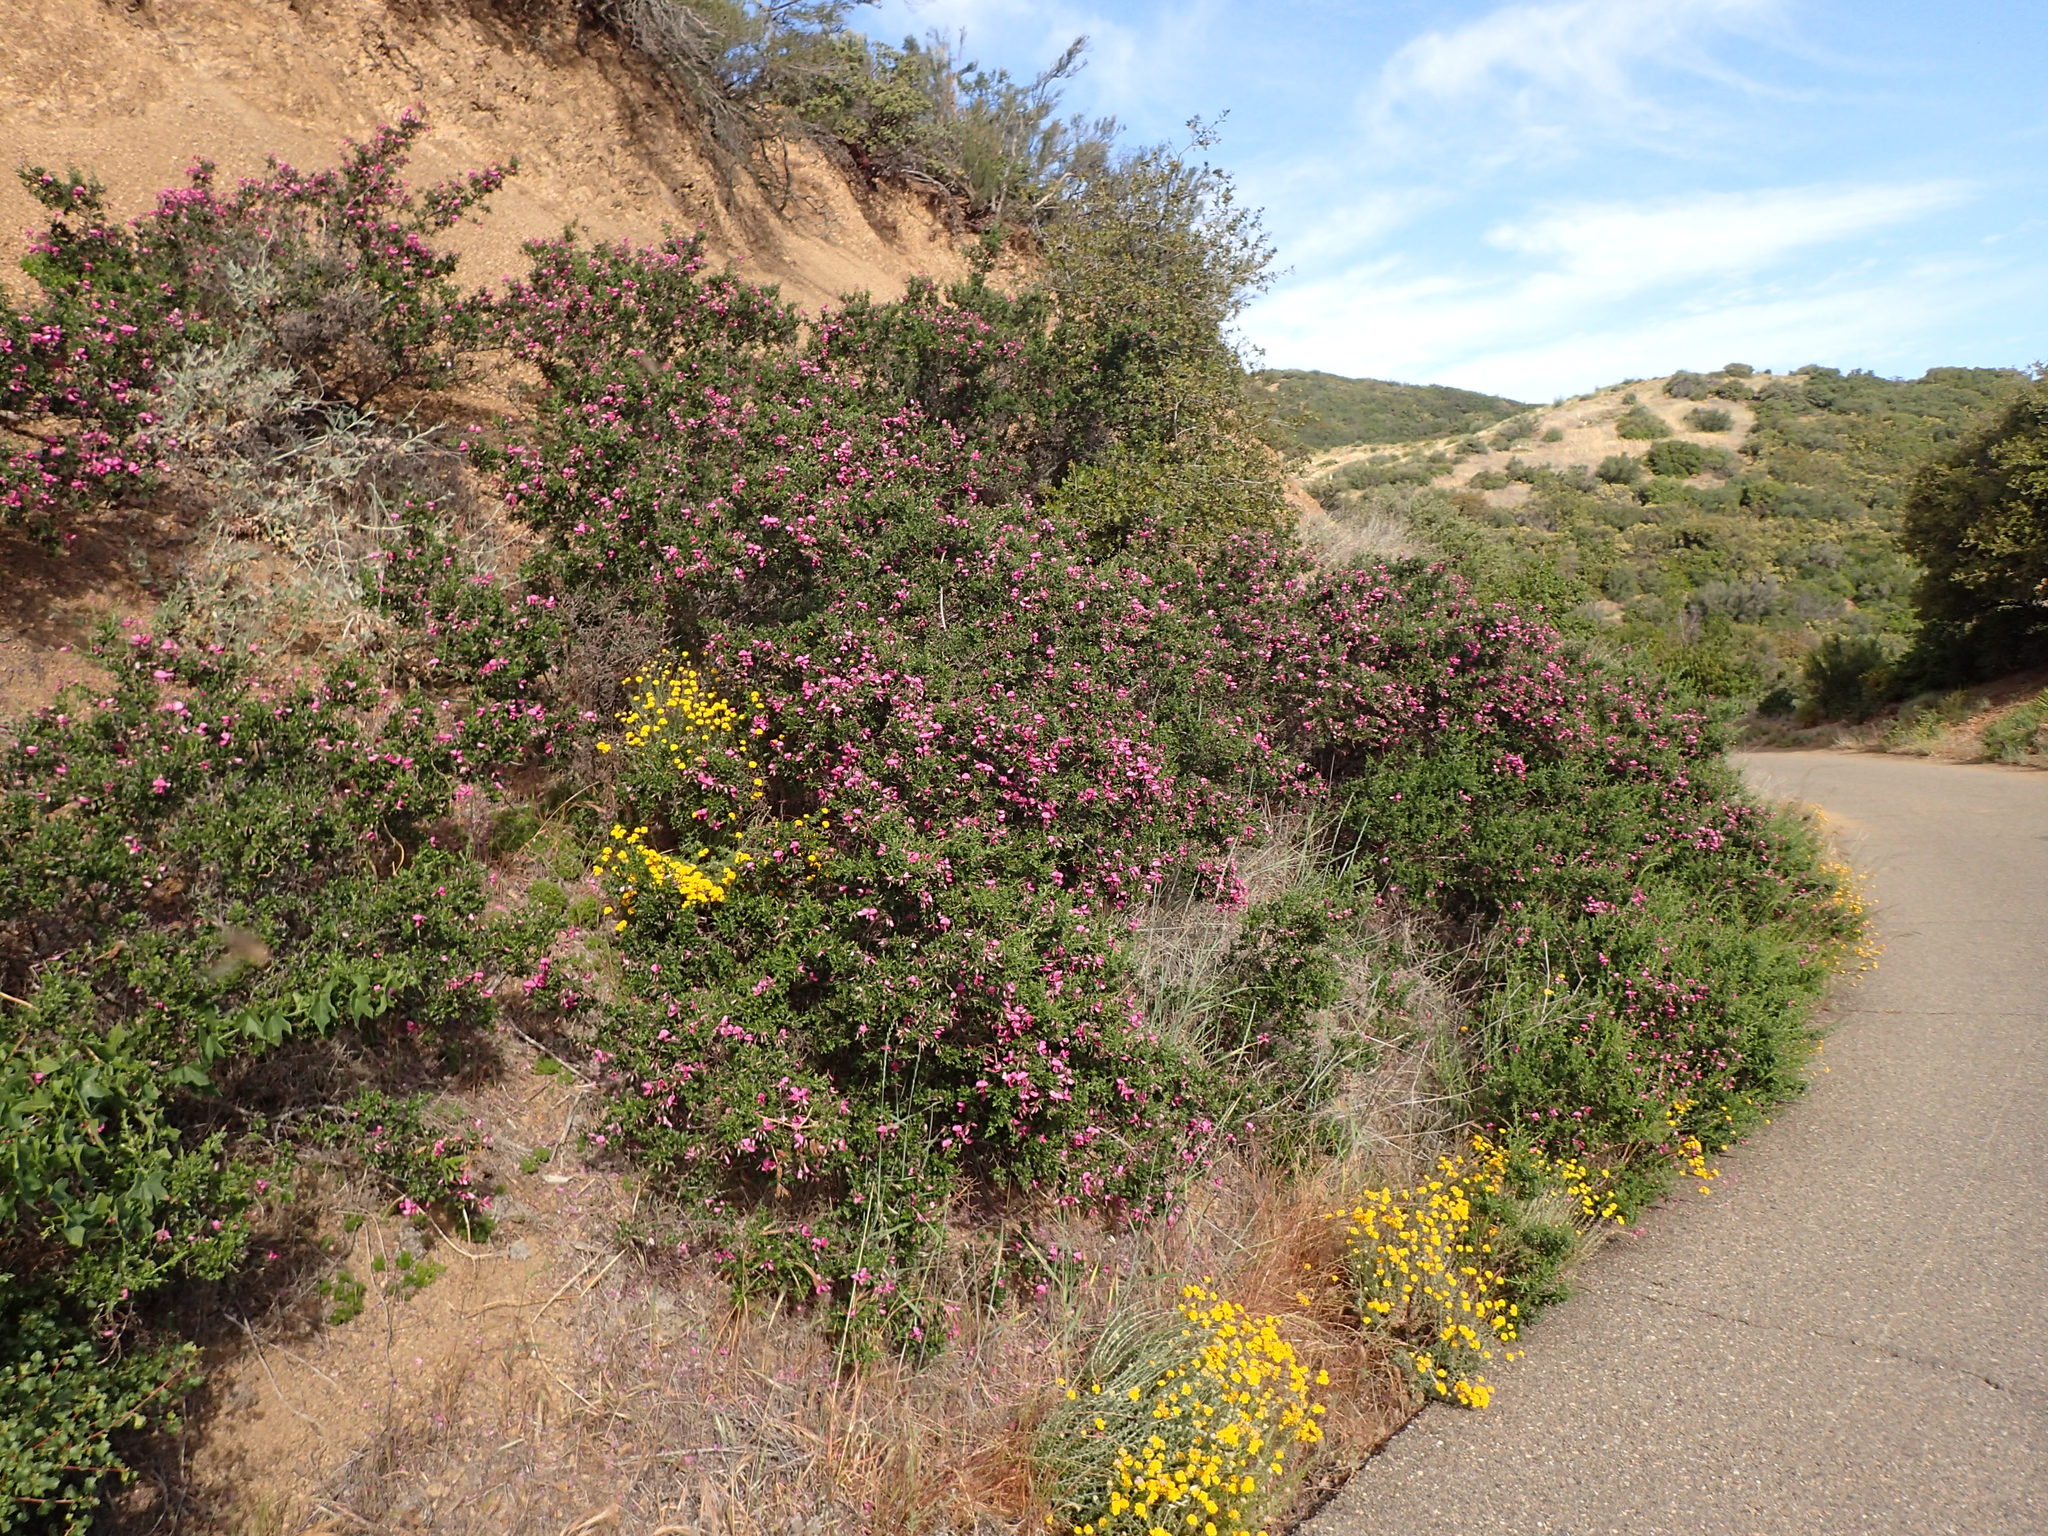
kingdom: Plantae
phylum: Tracheophyta
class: Magnoliopsida
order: Fabales
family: Fabaceae
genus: Pickeringia
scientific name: Pickeringia montana
